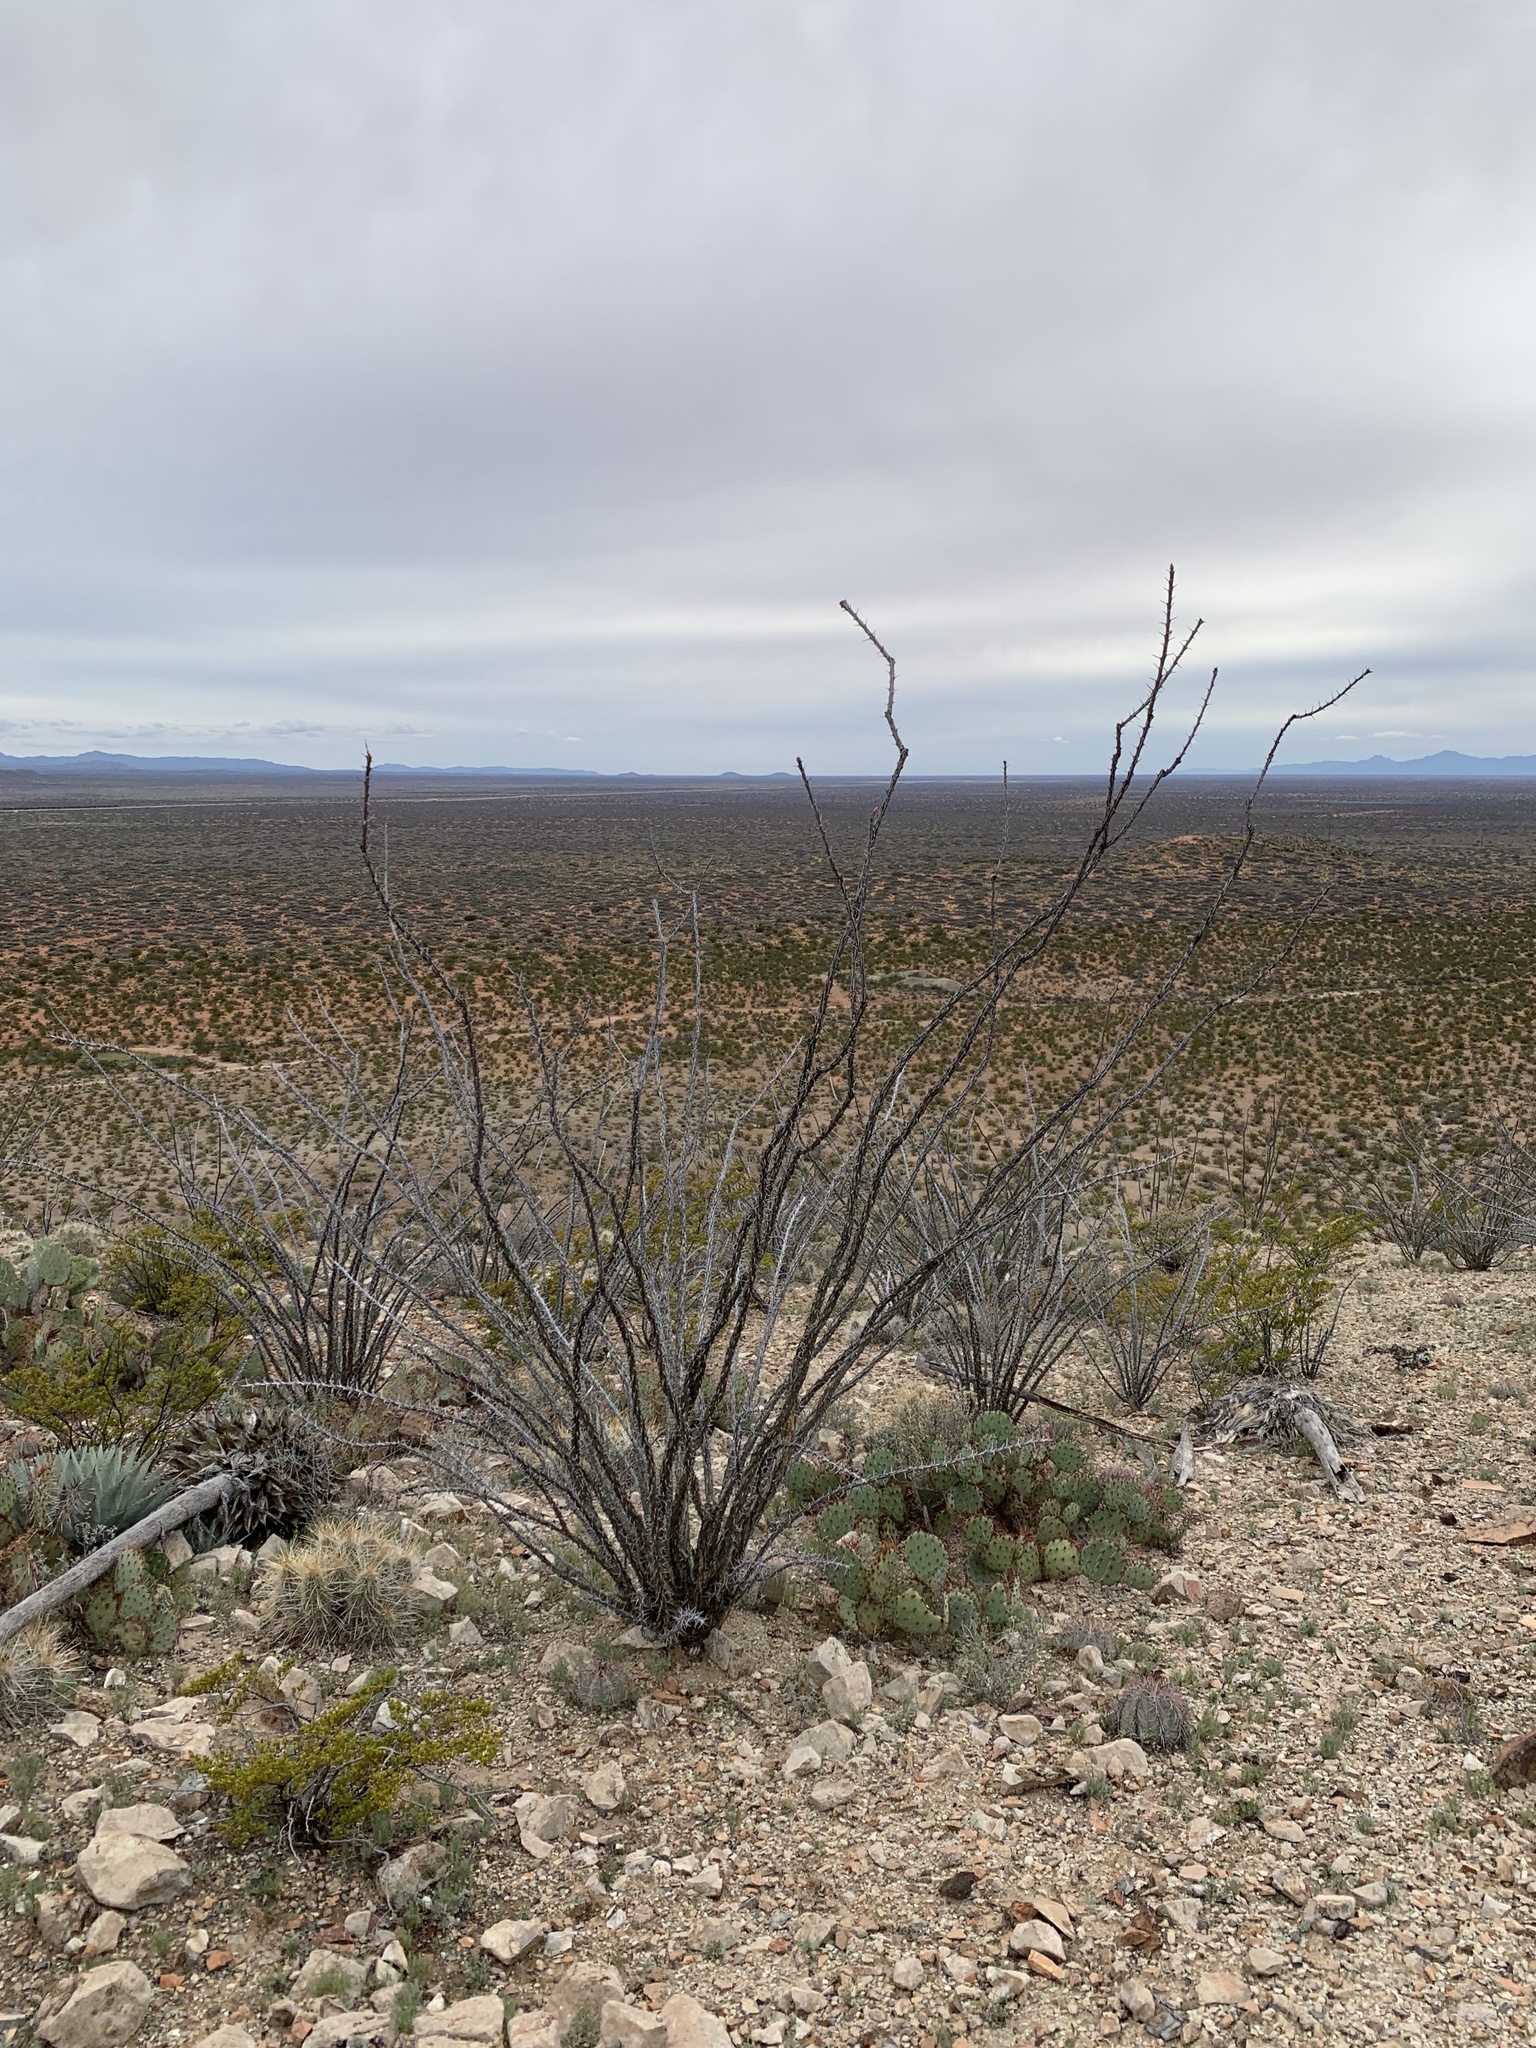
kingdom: Plantae
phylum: Tracheophyta
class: Magnoliopsida
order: Ericales
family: Fouquieriaceae
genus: Fouquieria
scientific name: Fouquieria splendens
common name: Vine-cactus
